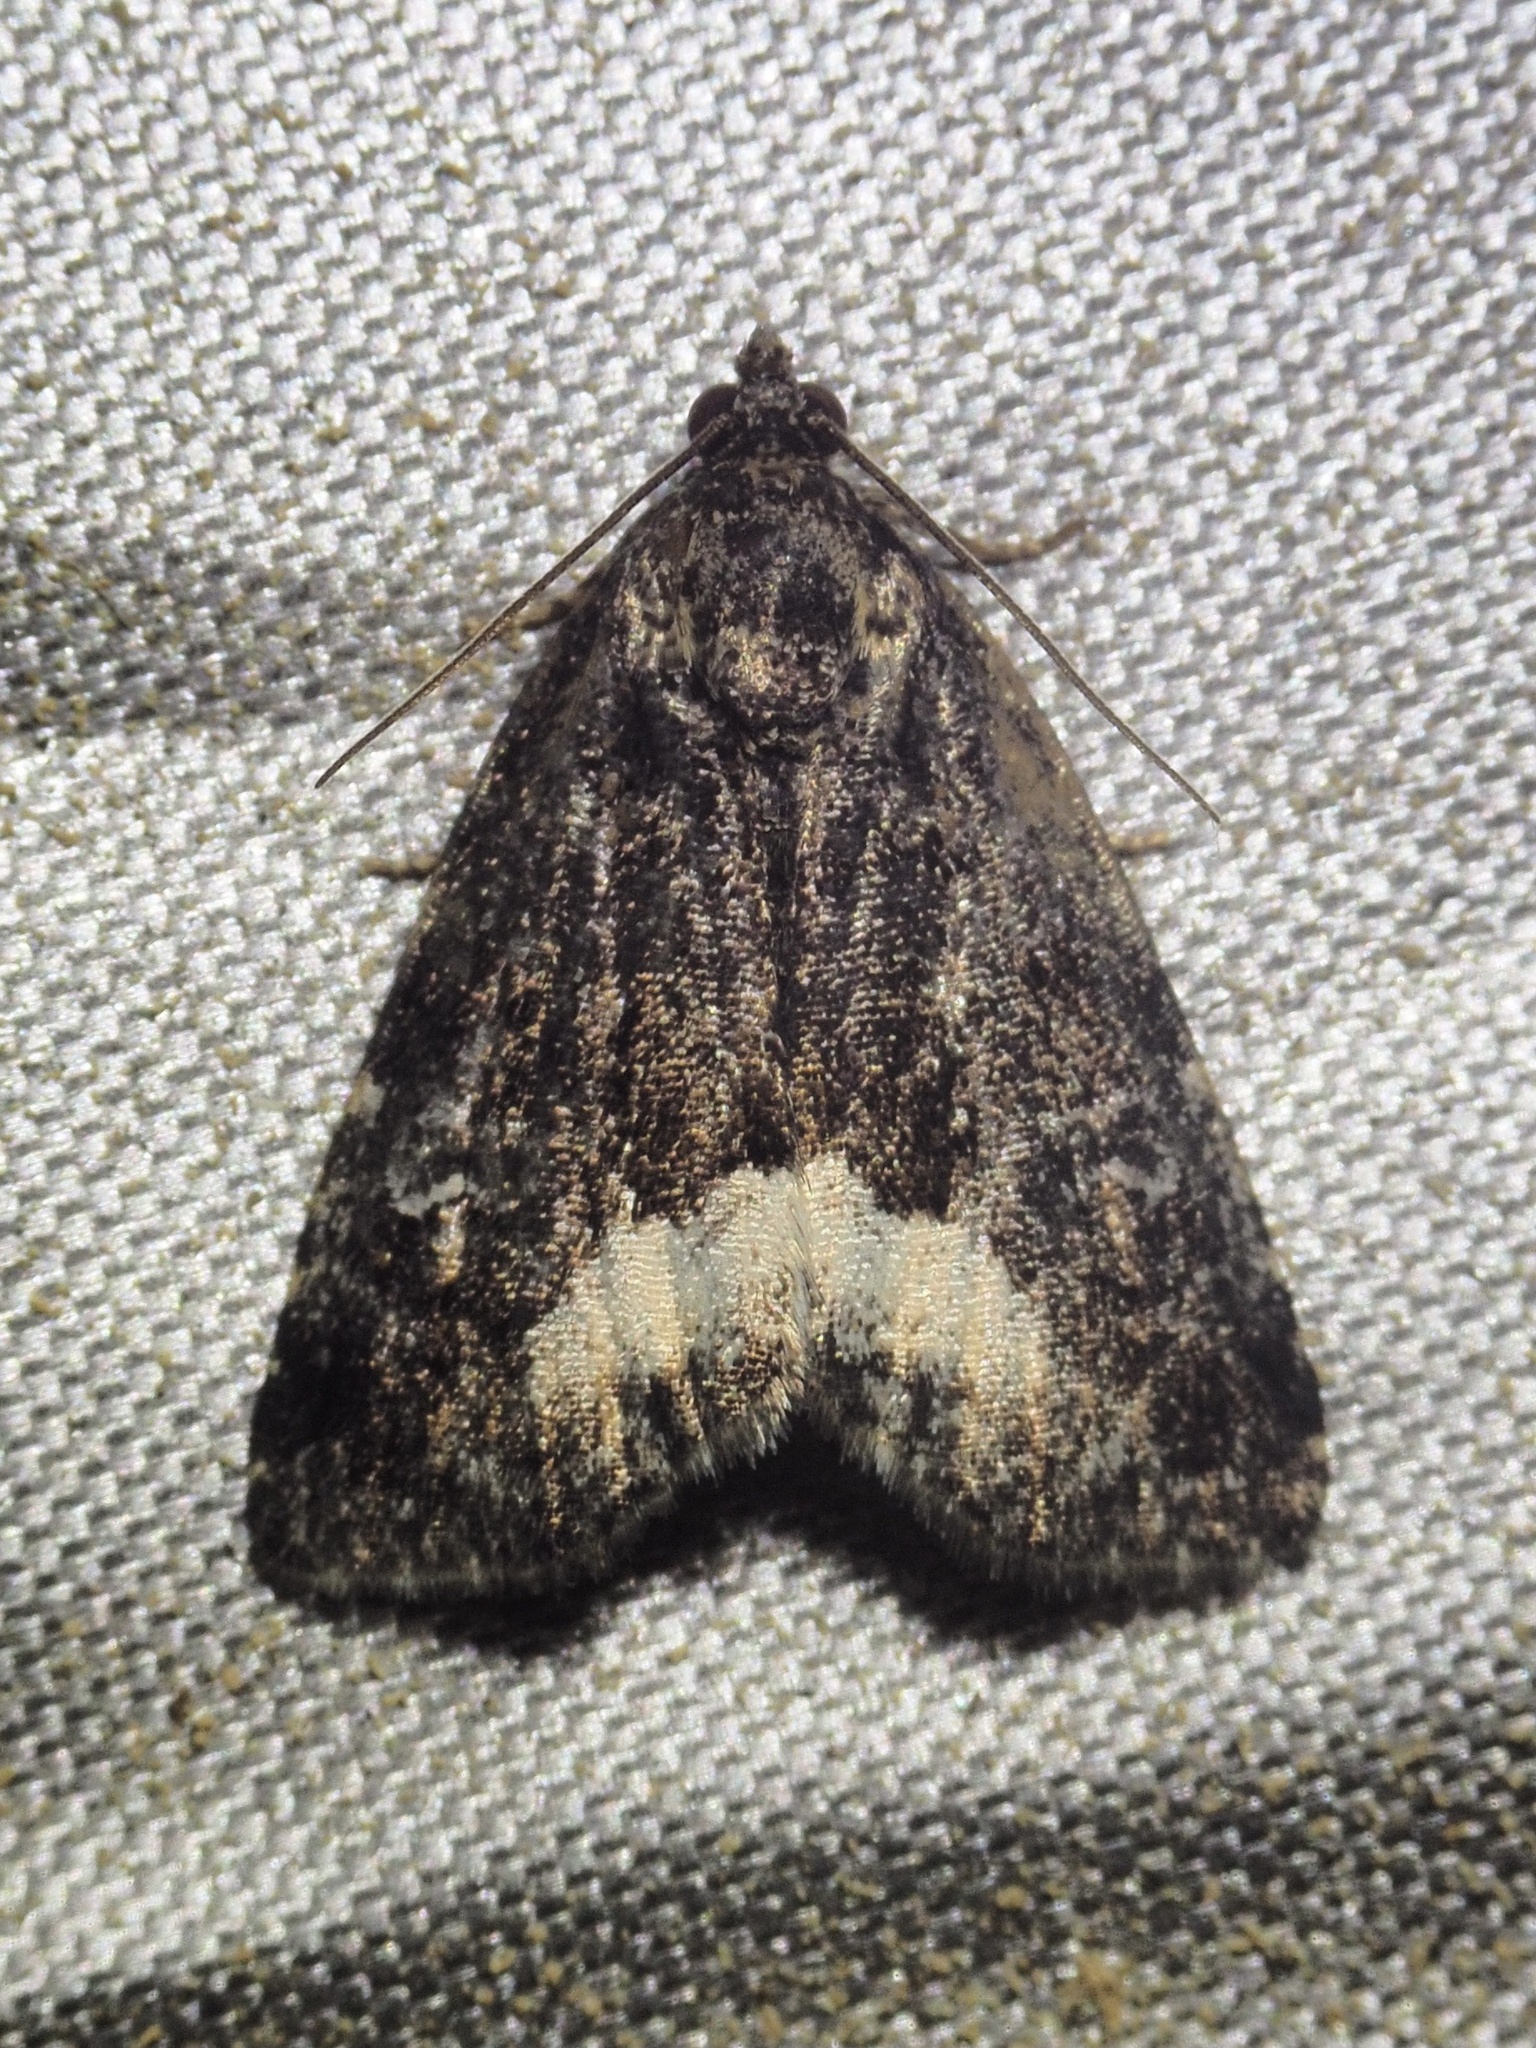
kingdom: Animalia
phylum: Arthropoda
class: Insecta
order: Lepidoptera
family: Noctuidae
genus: Deltote
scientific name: Deltote pygarga
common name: Marbled white spot
